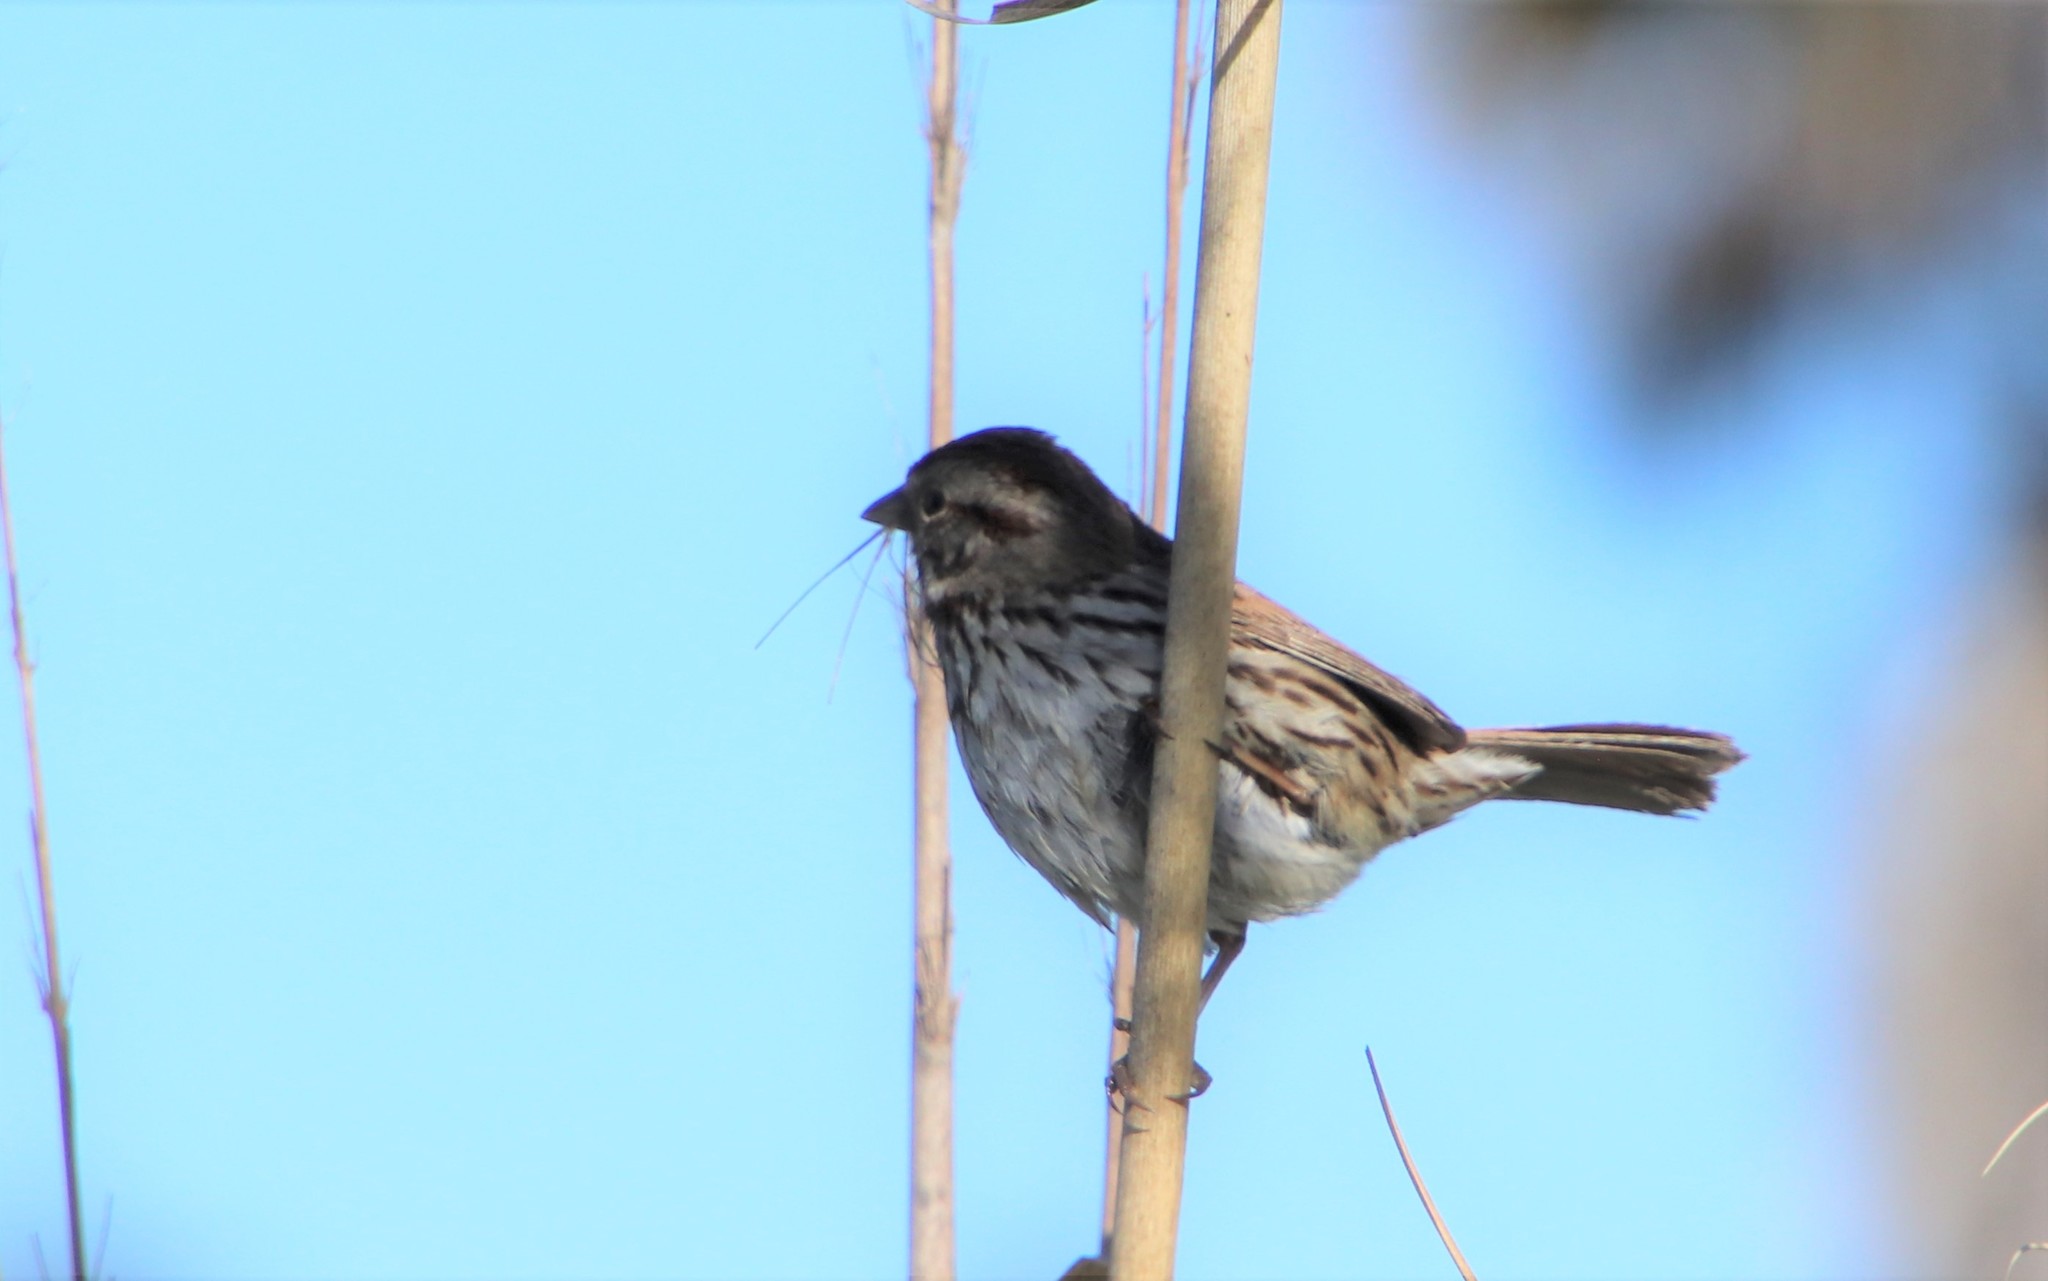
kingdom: Animalia
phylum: Chordata
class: Aves
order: Passeriformes
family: Passerellidae
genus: Melospiza
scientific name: Melospiza melodia
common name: Song sparrow
